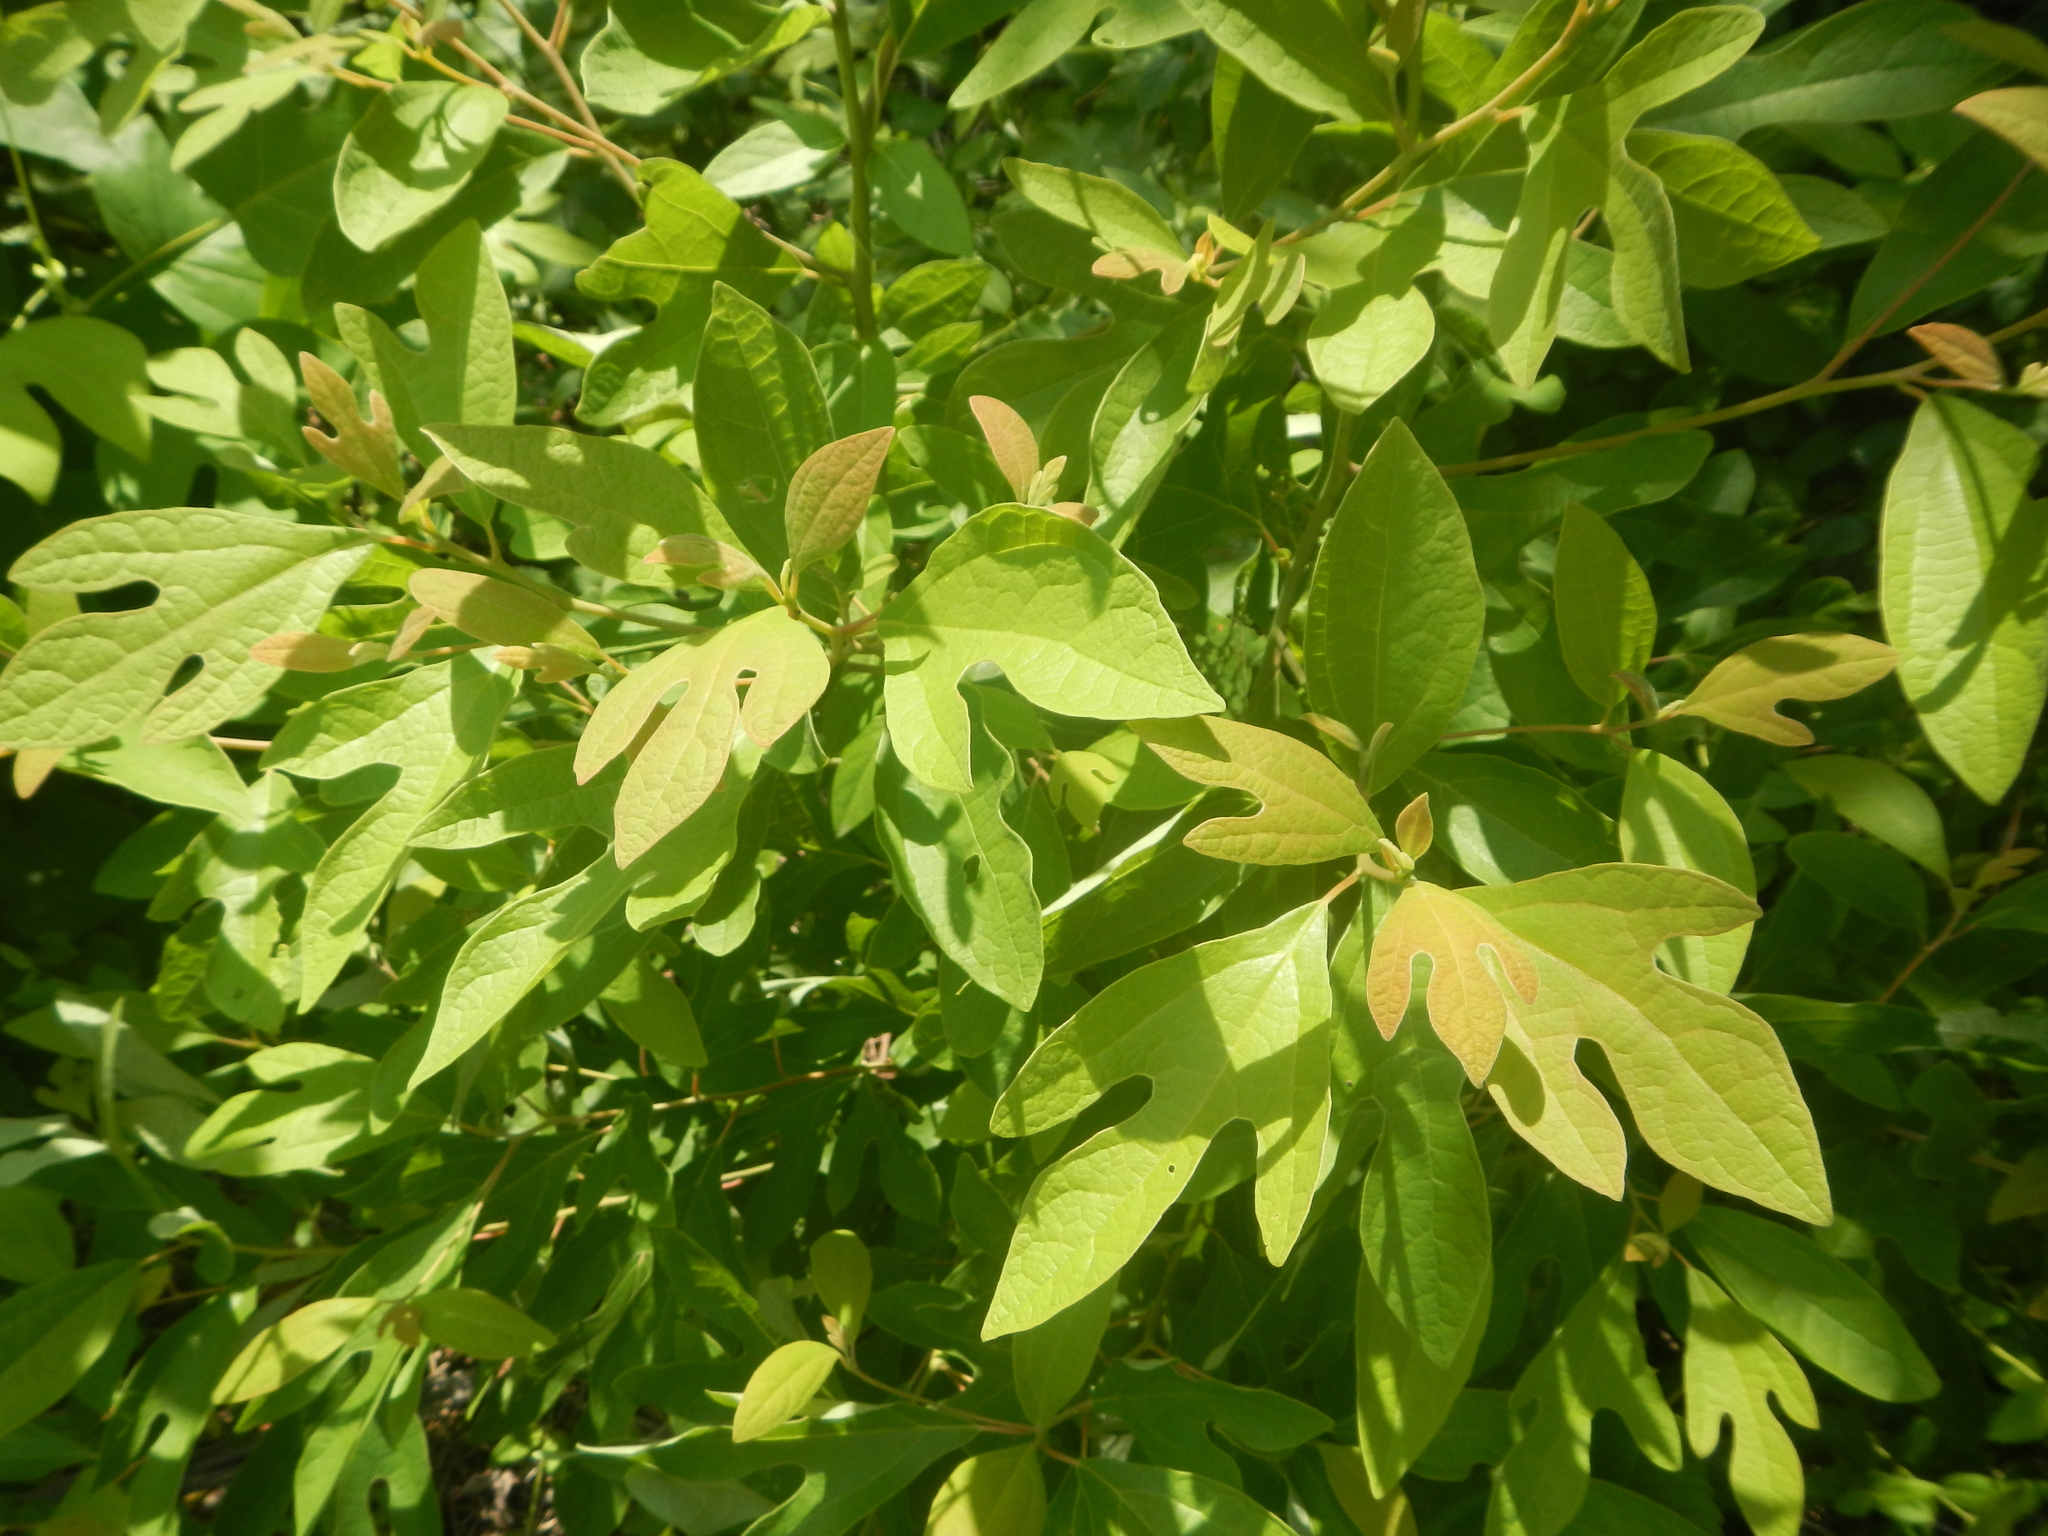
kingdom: Plantae
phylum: Tracheophyta
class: Magnoliopsida
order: Laurales
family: Lauraceae
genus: Sassafras
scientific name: Sassafras albidum
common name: Sassafras
